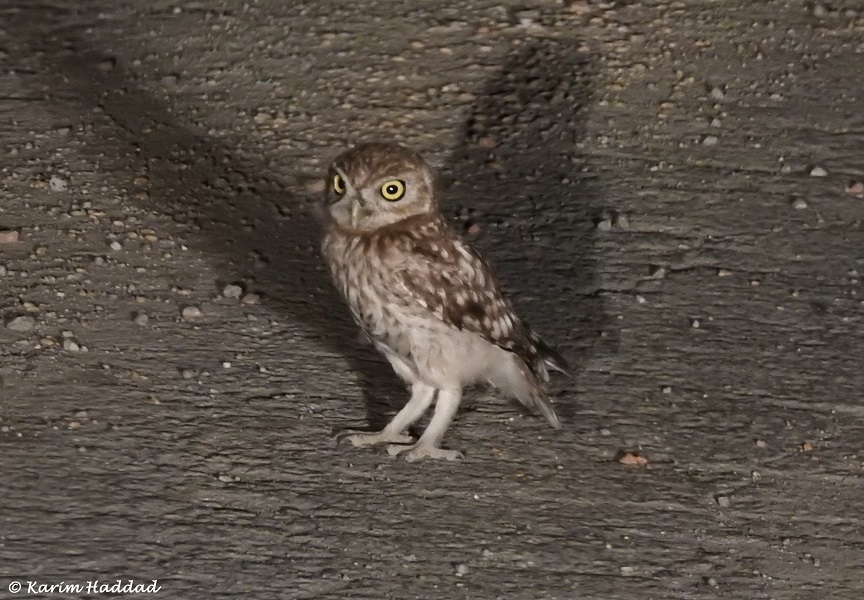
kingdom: Animalia
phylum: Chordata
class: Aves
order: Strigiformes
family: Strigidae
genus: Athene
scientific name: Athene noctua
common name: Little owl
